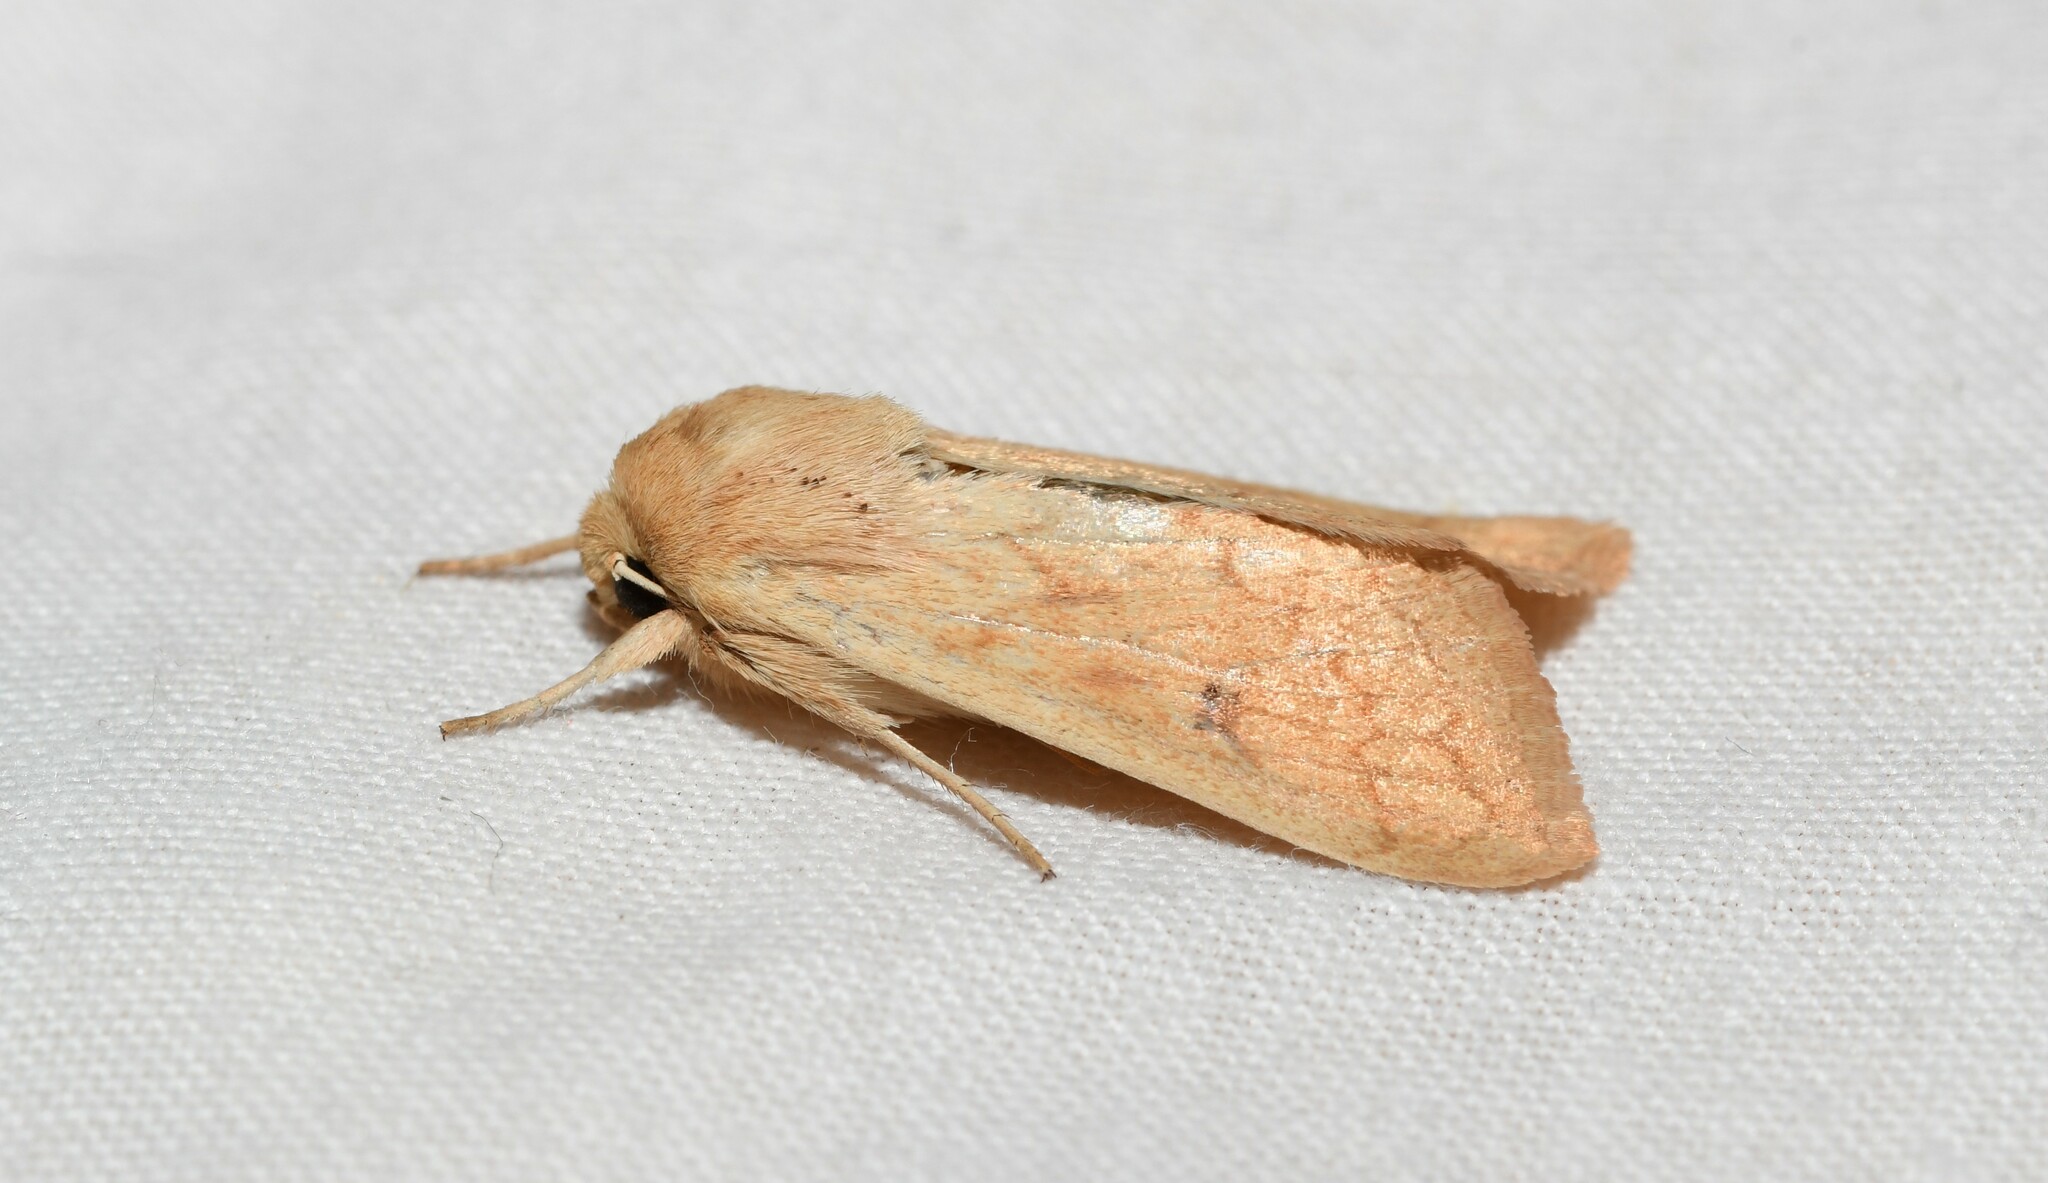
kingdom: Animalia
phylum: Arthropoda
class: Insecta
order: Lepidoptera
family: Noctuidae
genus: Mythimna
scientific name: Mythimna vitellina
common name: Delicate
